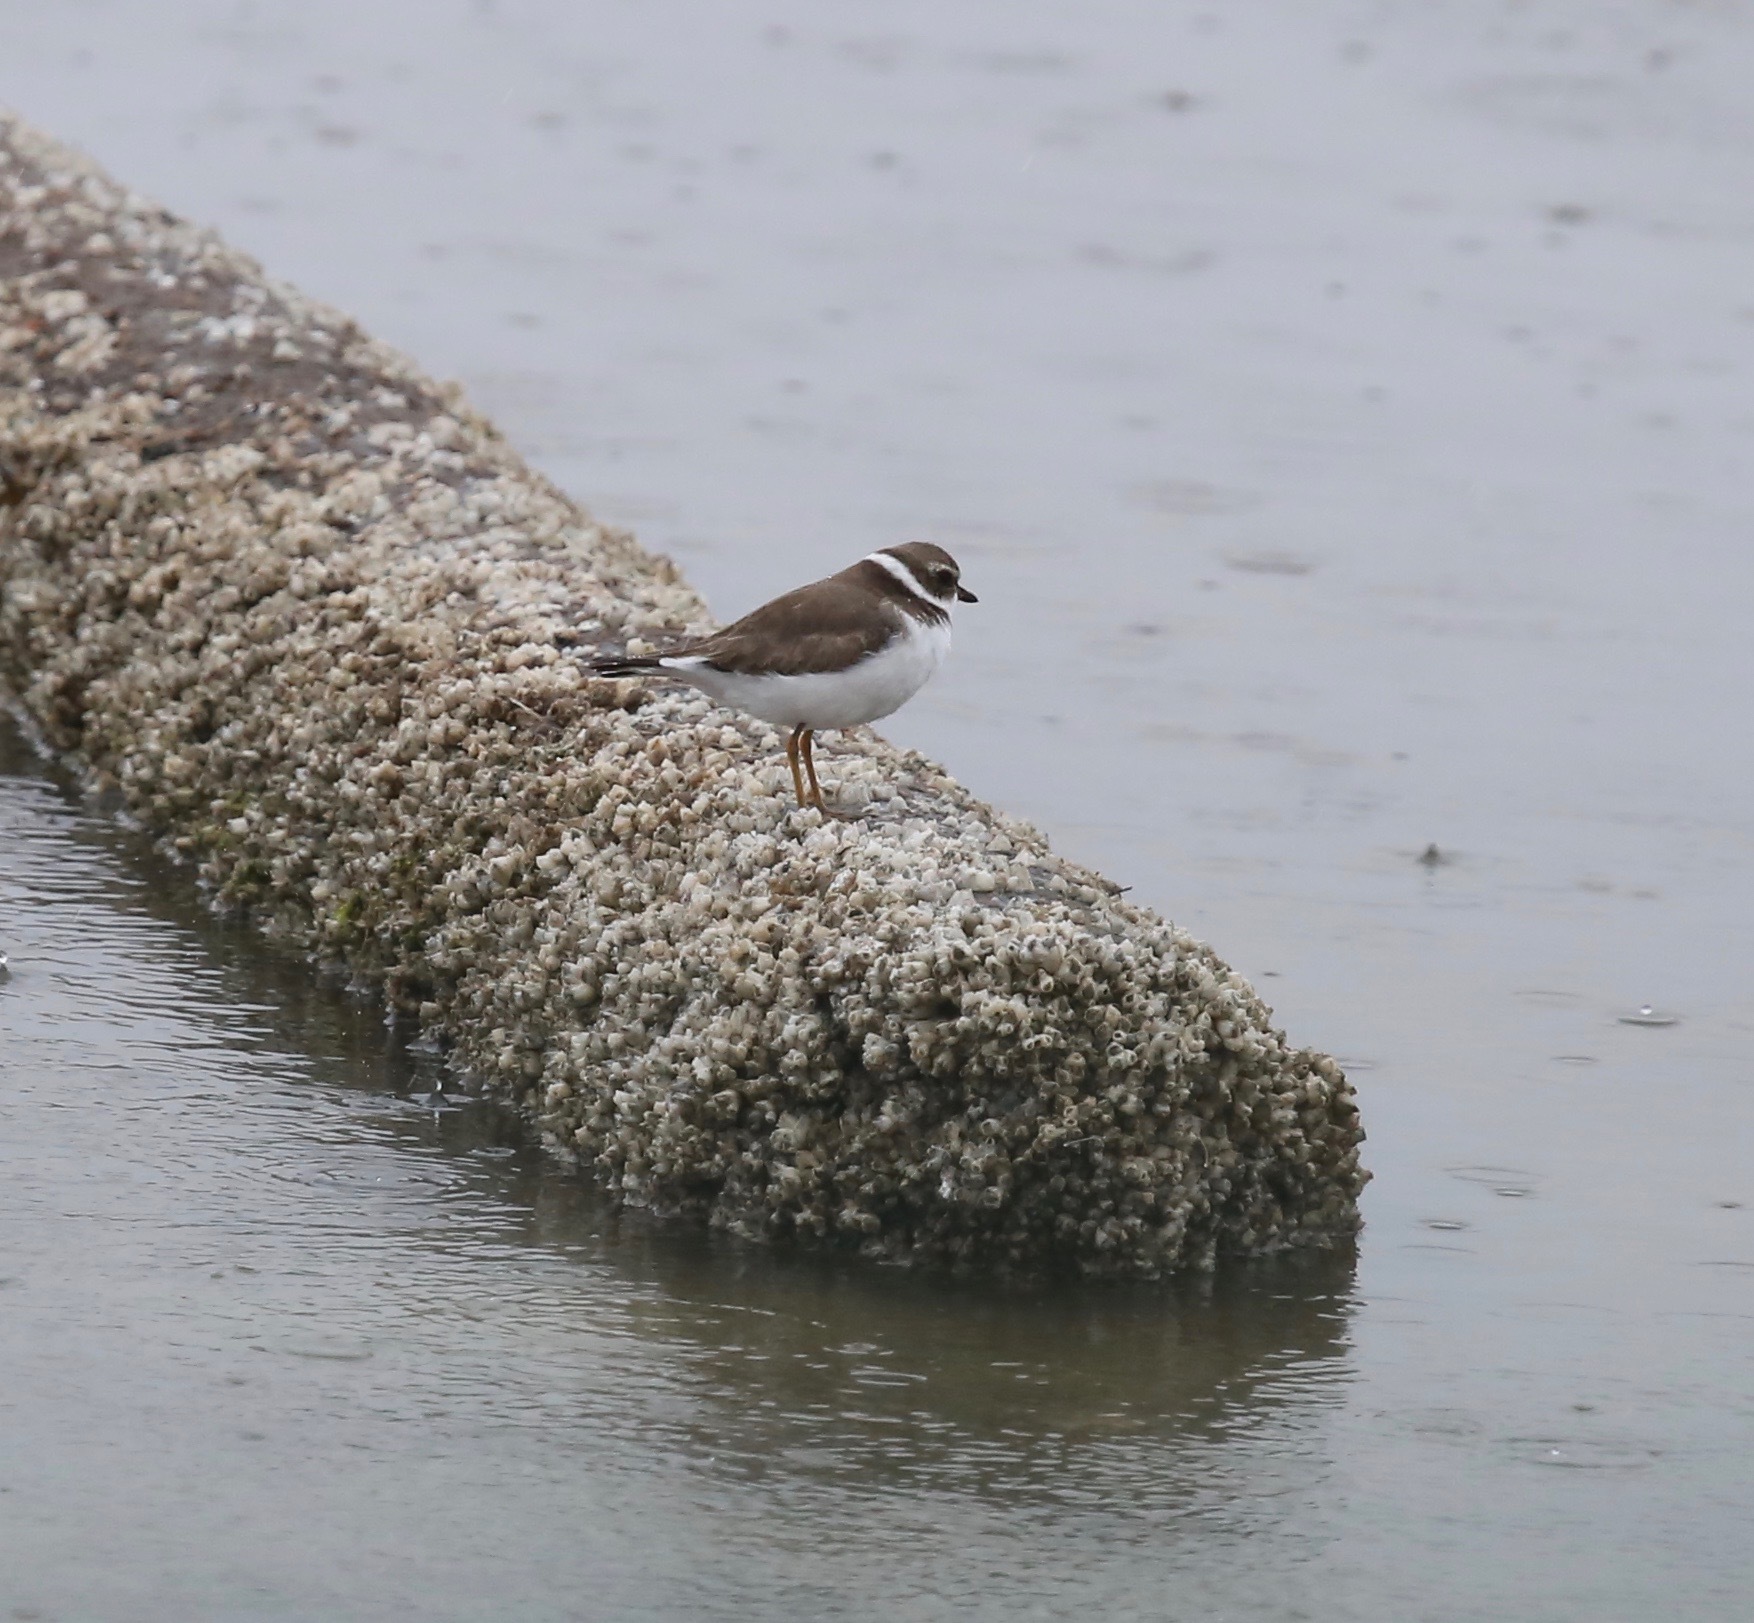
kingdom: Animalia
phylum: Chordata
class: Aves
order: Charadriiformes
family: Charadriidae
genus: Charadrius
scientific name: Charadrius semipalmatus
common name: Semipalmated plover
